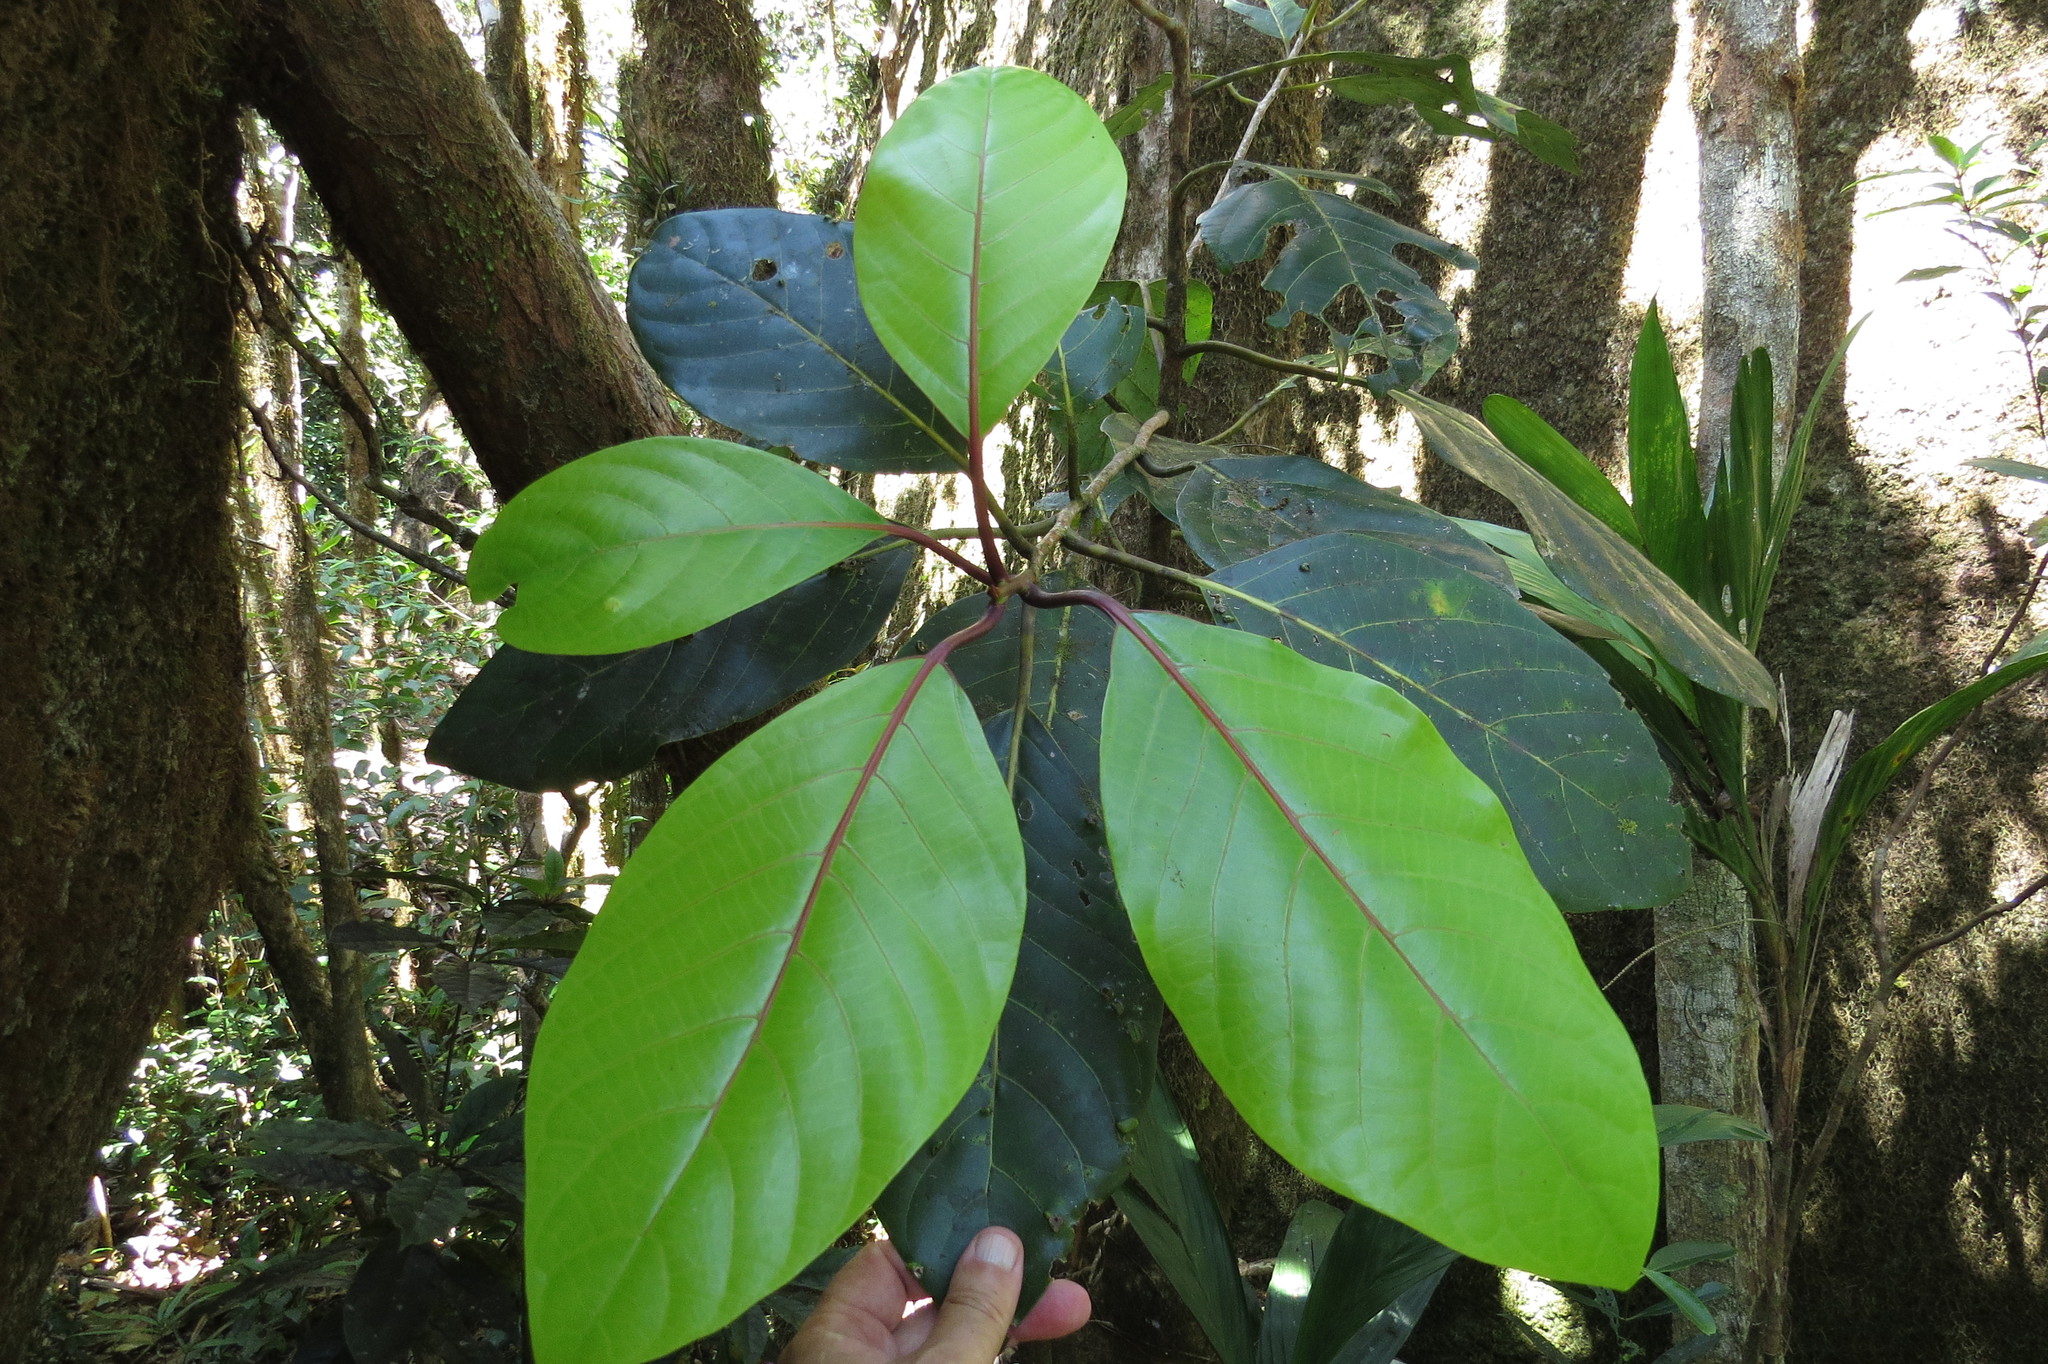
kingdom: Plantae
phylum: Tracheophyta
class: Magnoliopsida
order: Laurales
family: Lauraceae
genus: Litsea
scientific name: Litsea granitica
